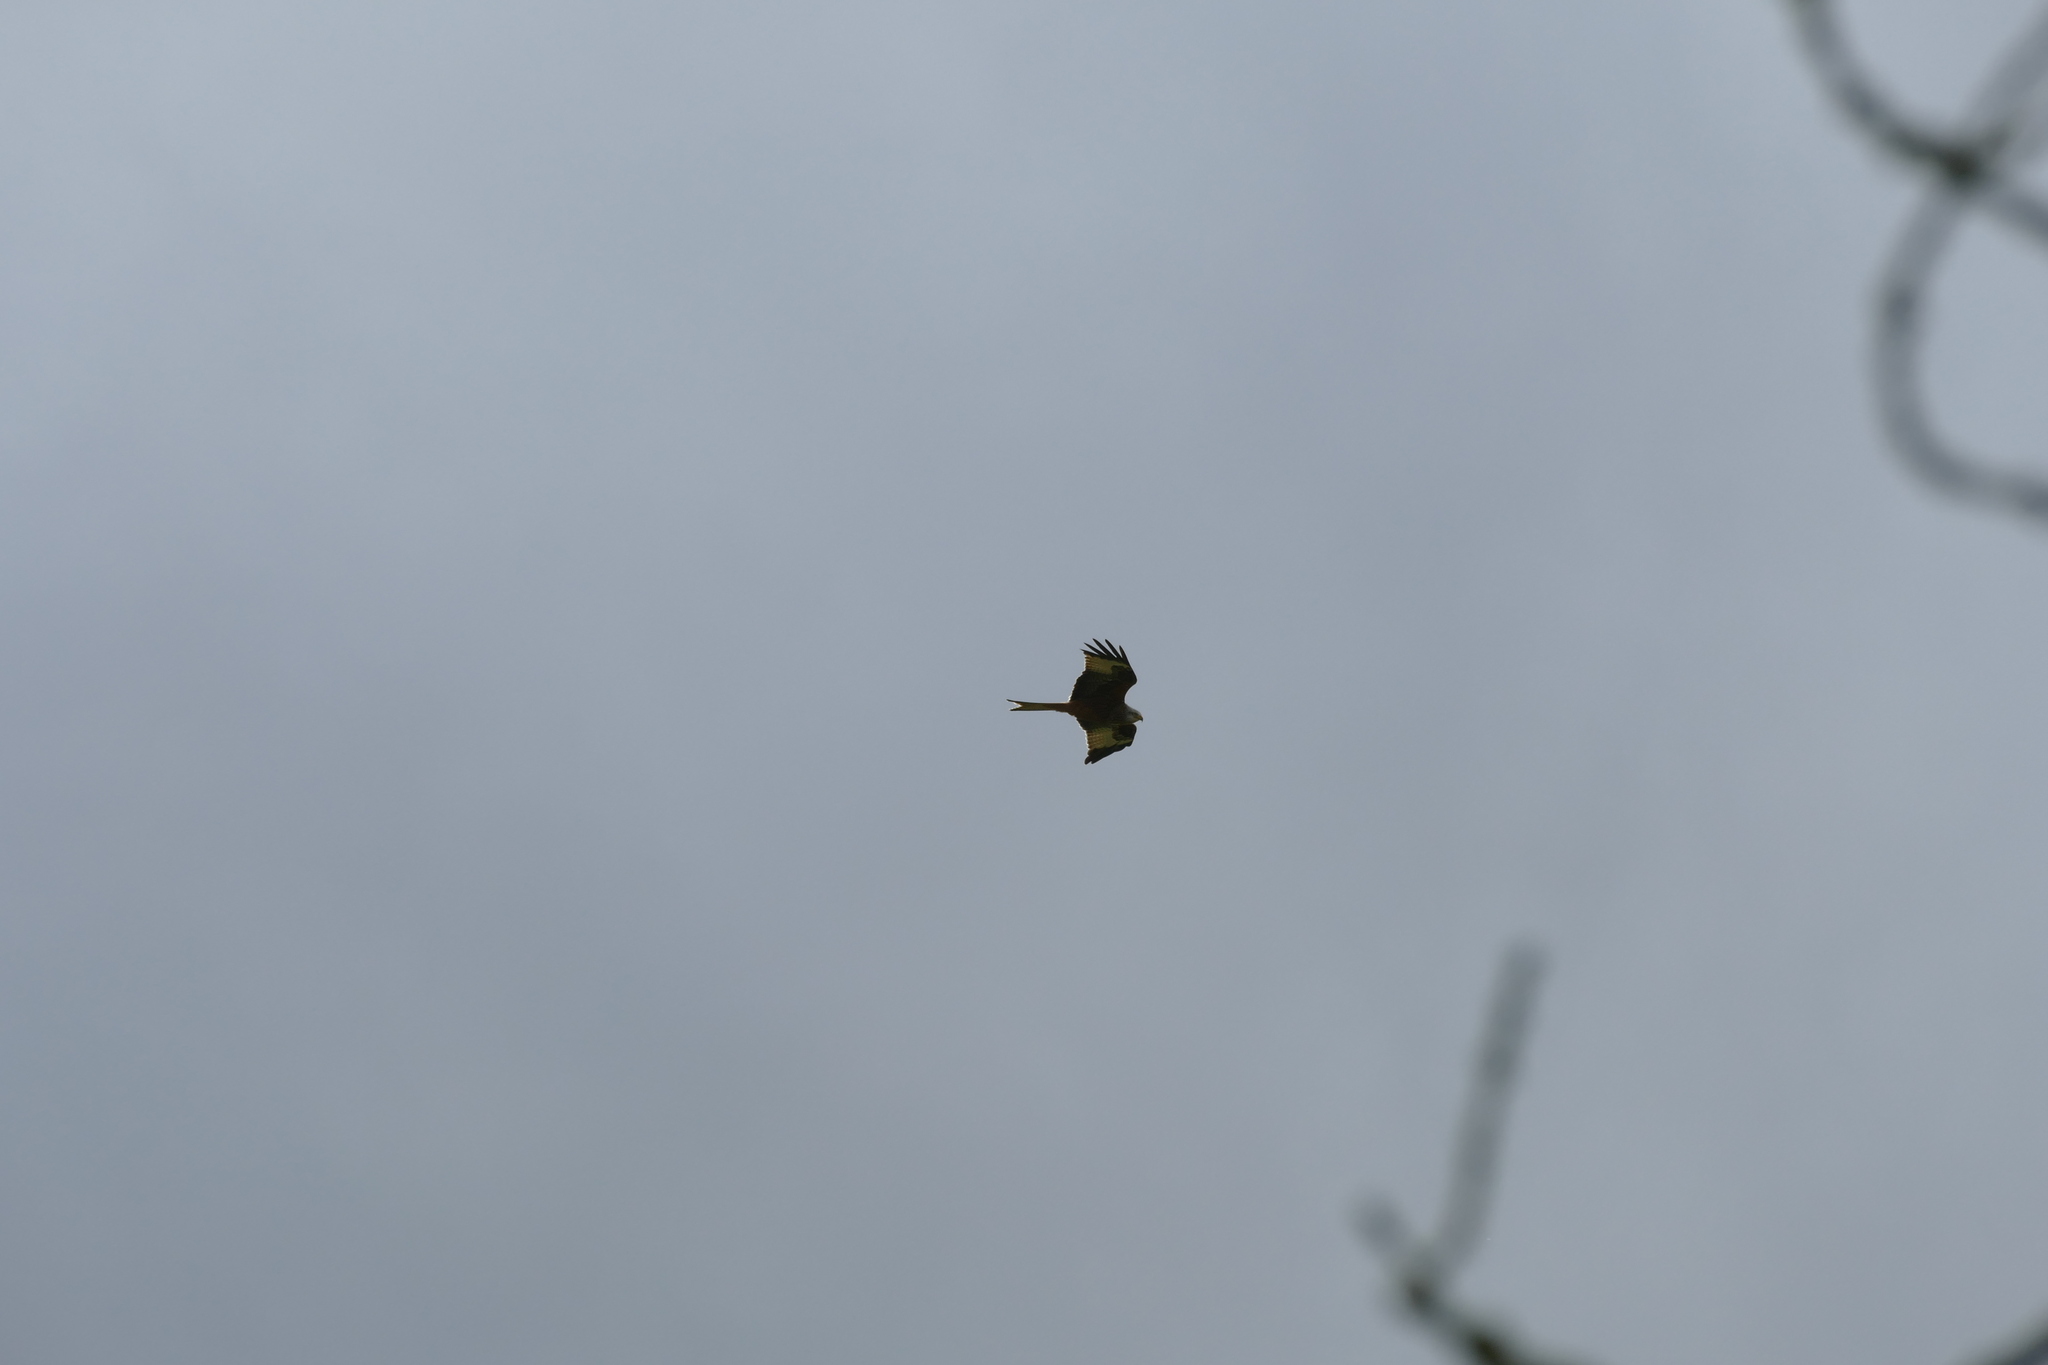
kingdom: Animalia
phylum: Chordata
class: Aves
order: Accipitriformes
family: Accipitridae
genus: Milvus
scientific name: Milvus milvus
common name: Red kite
